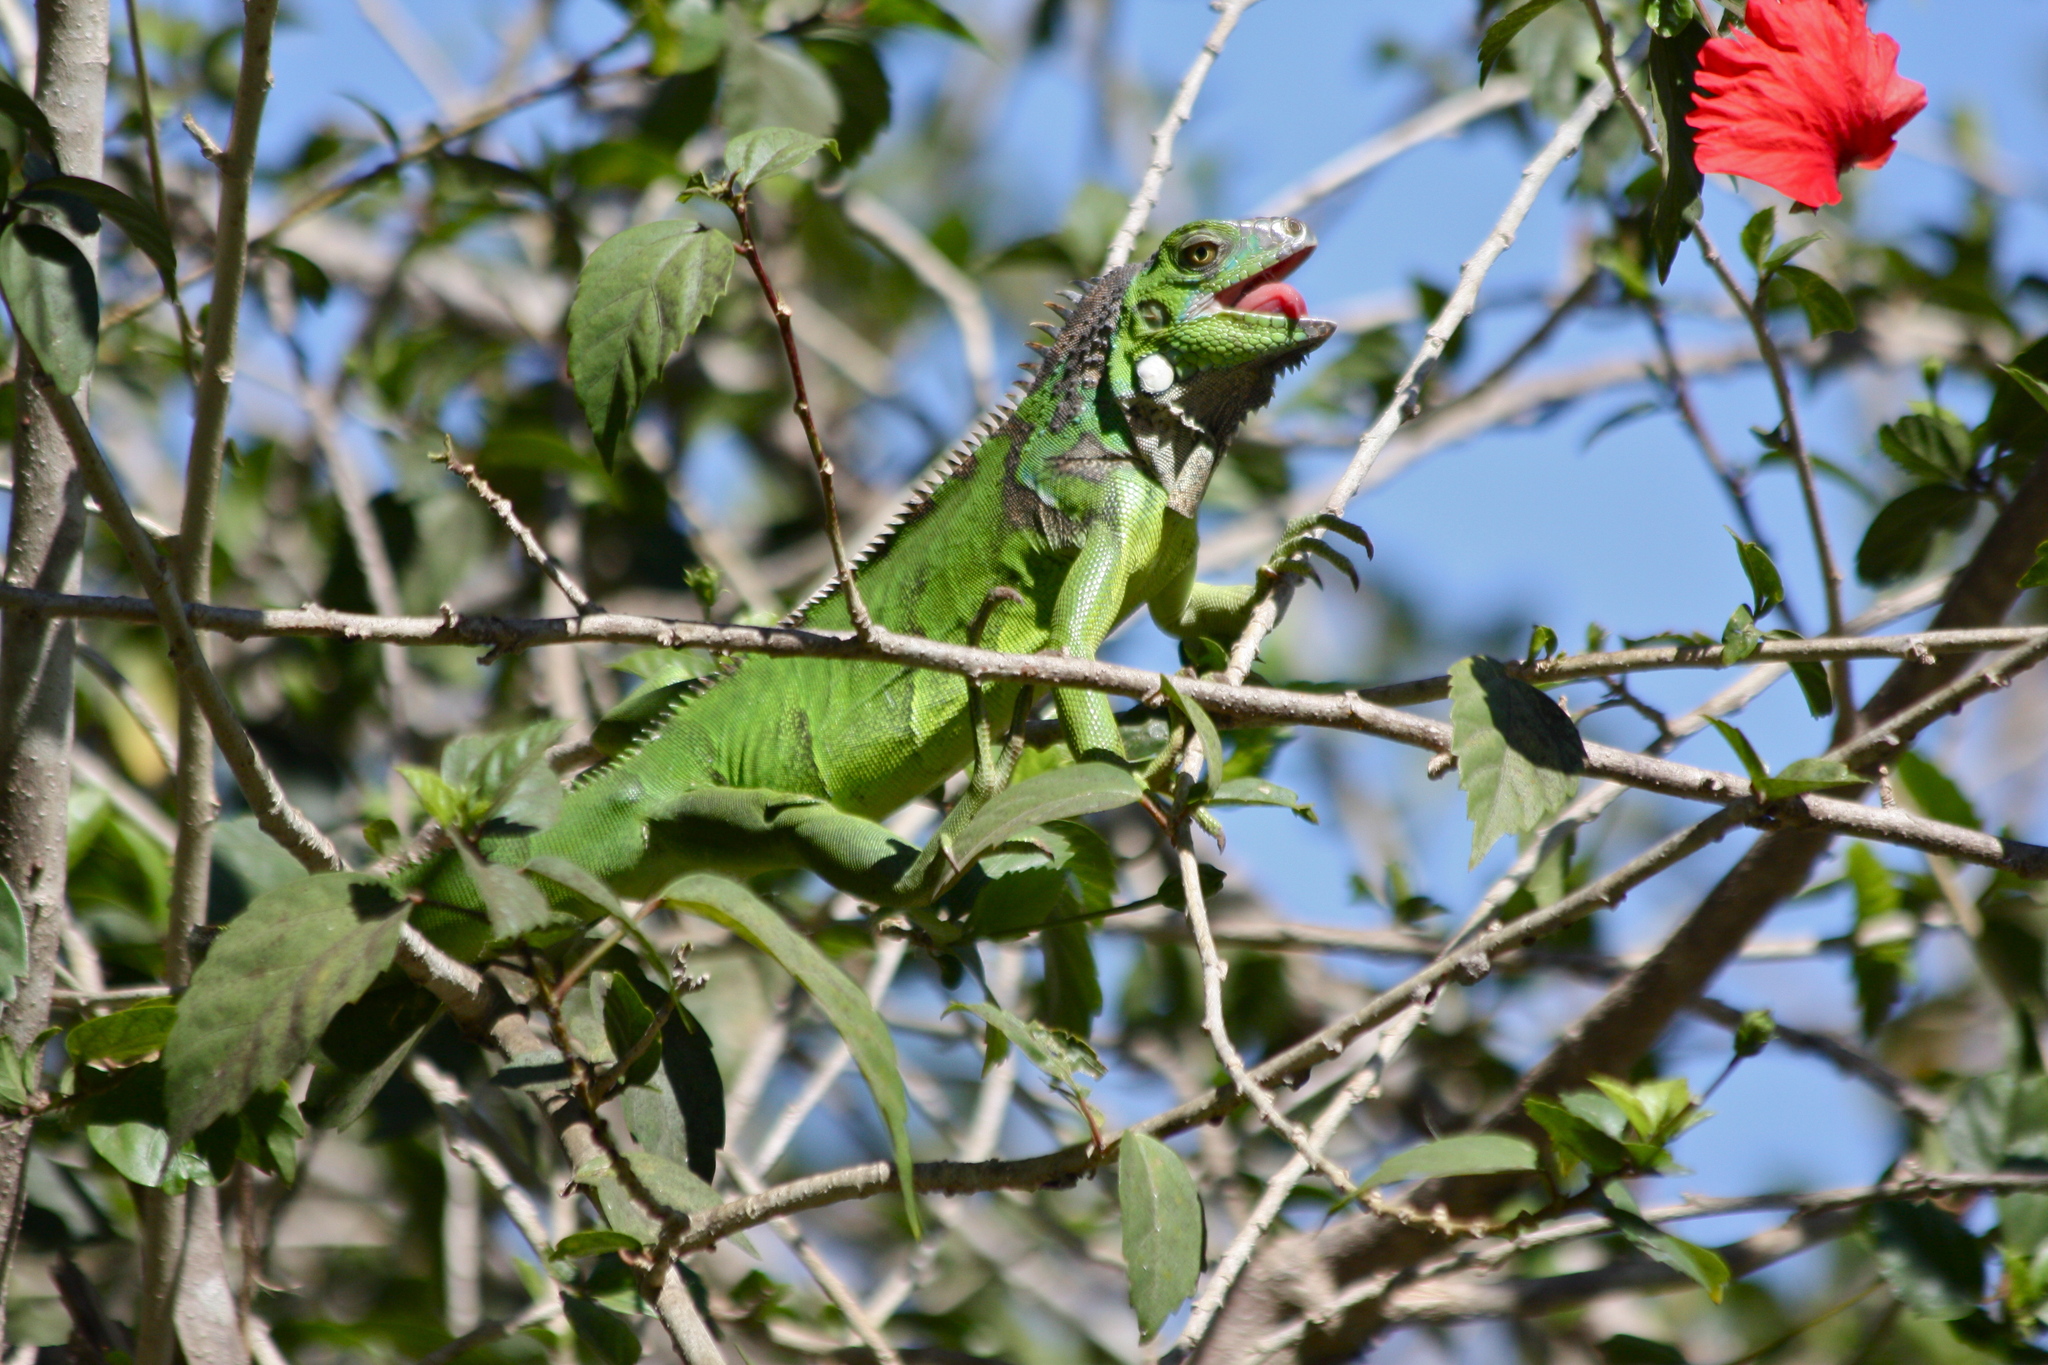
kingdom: Animalia
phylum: Chordata
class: Squamata
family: Iguanidae
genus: Iguana
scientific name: Iguana iguana
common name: Green iguana
